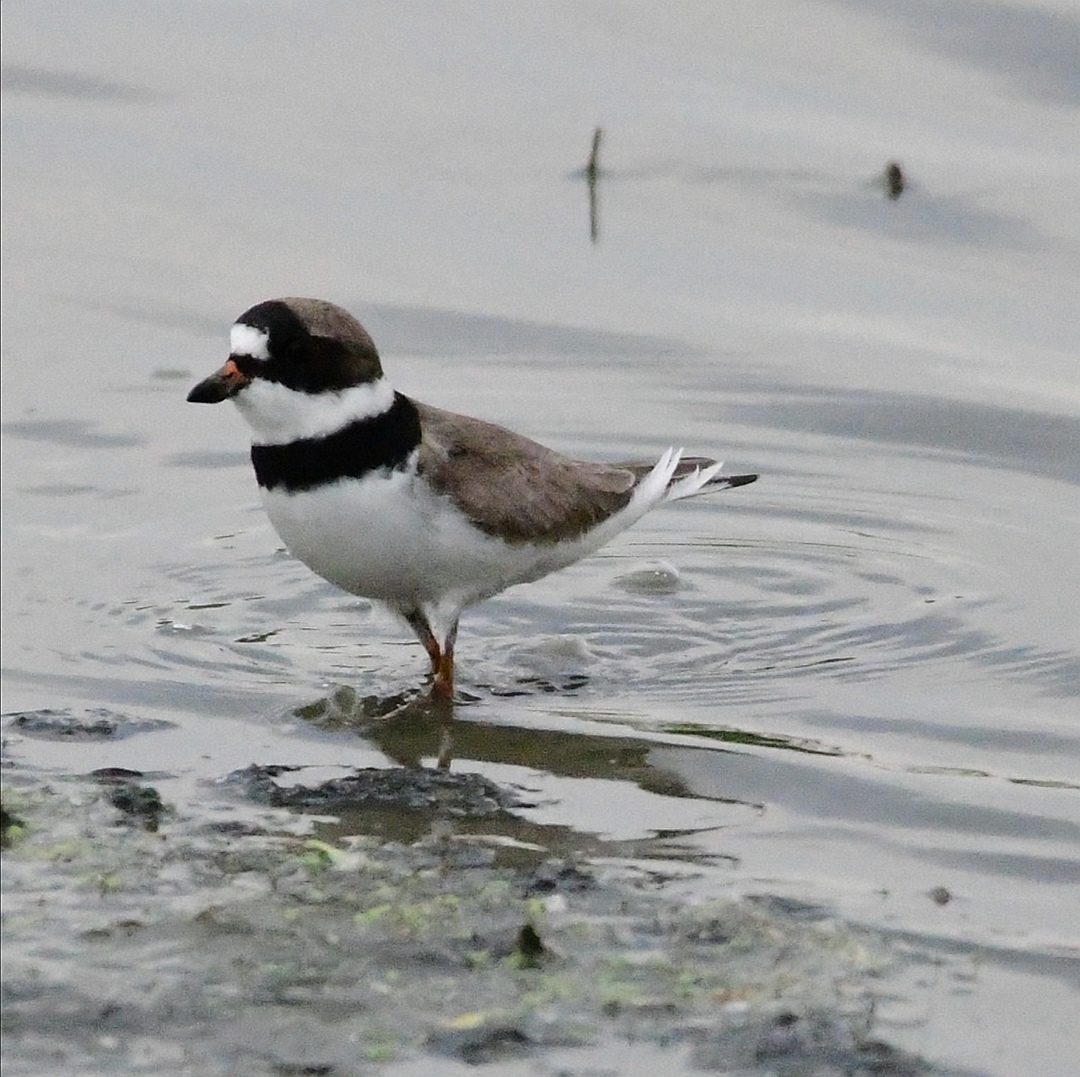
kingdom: Animalia
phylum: Chordata
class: Aves
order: Charadriiformes
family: Charadriidae
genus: Charadrius
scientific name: Charadrius semipalmatus
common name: Semipalmated plover
